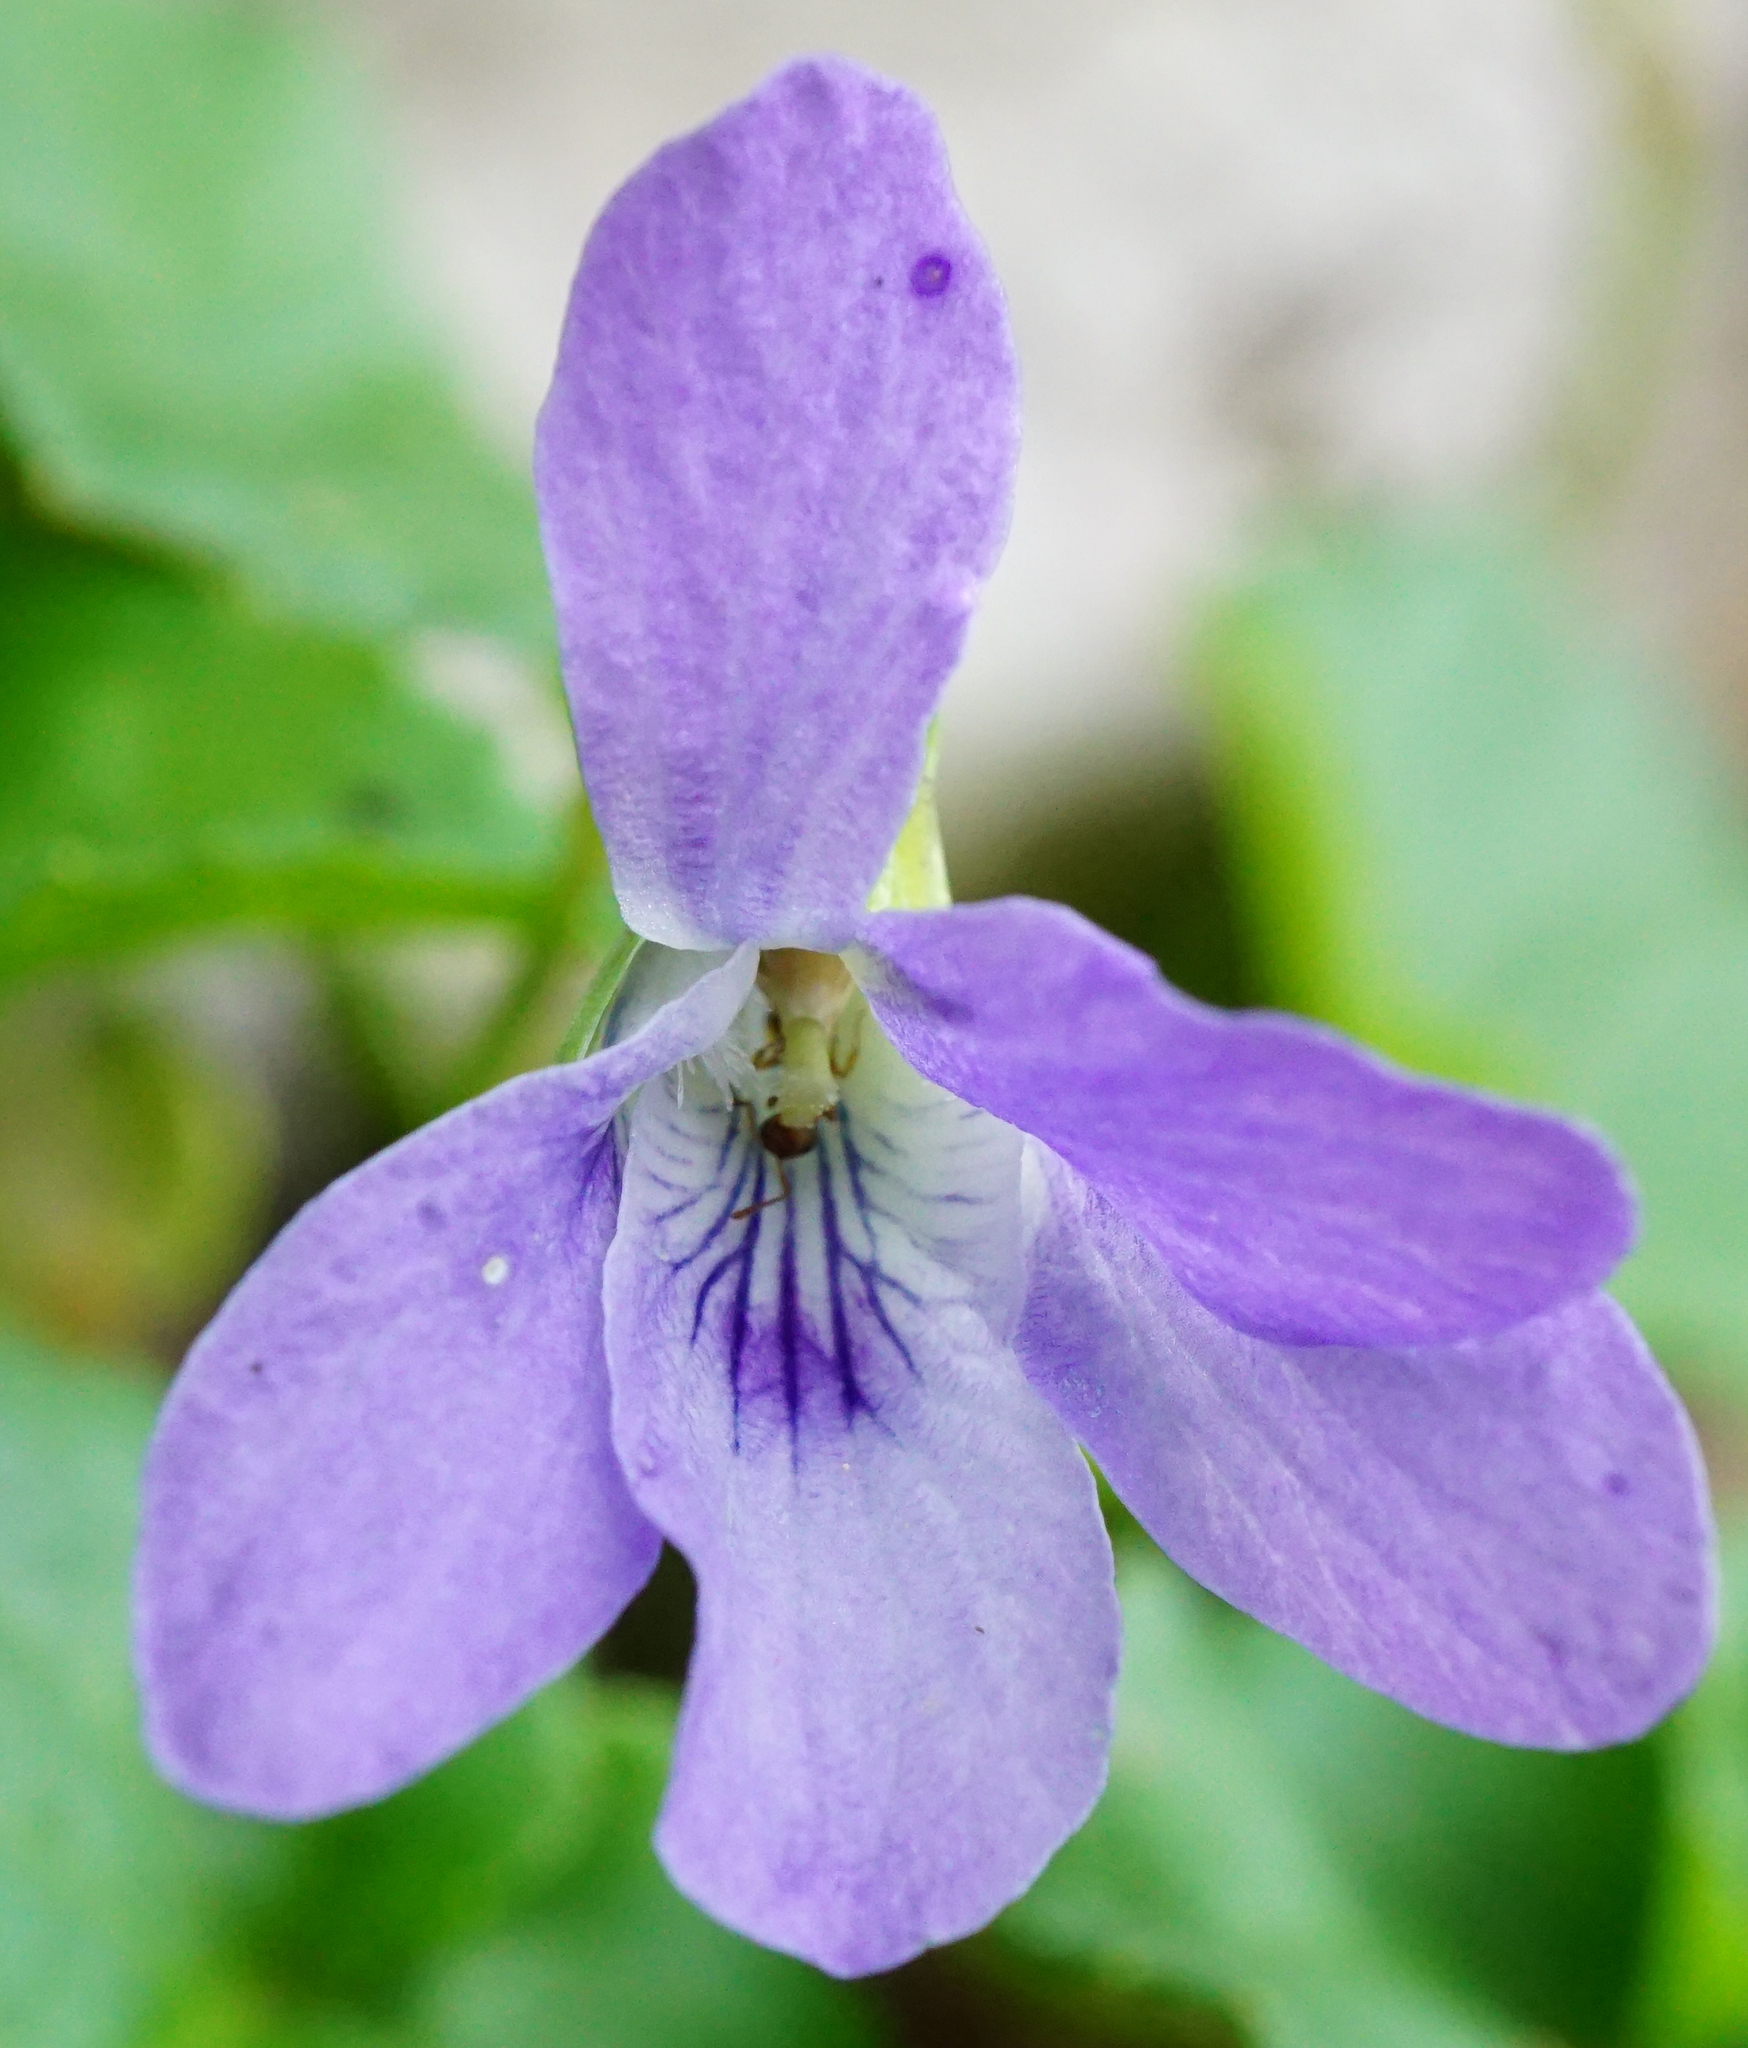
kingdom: Plantae
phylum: Tracheophyta
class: Magnoliopsida
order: Malpighiales
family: Violaceae
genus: Viola
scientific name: Viola reichenbachiana
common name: Early dog-violet
